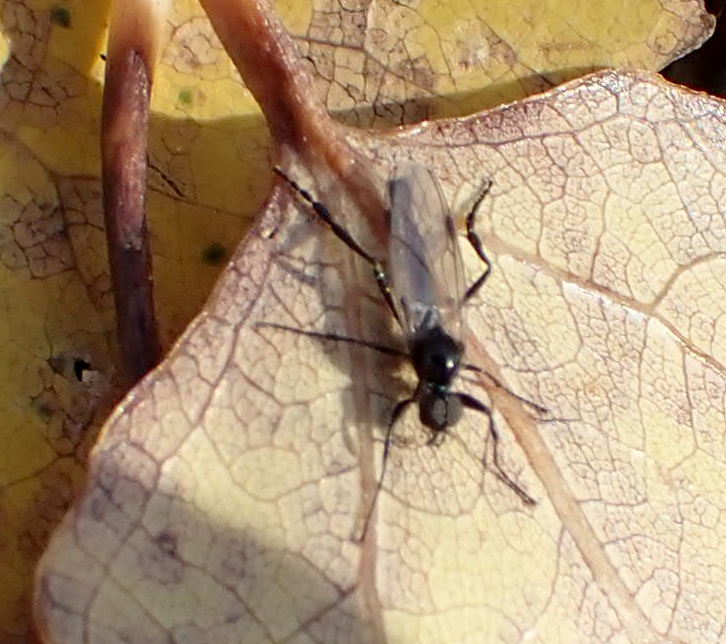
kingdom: Animalia
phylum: Arthropoda
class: Insecta
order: Diptera
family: Bibionidae
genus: Bibio
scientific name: Bibio slossonae
